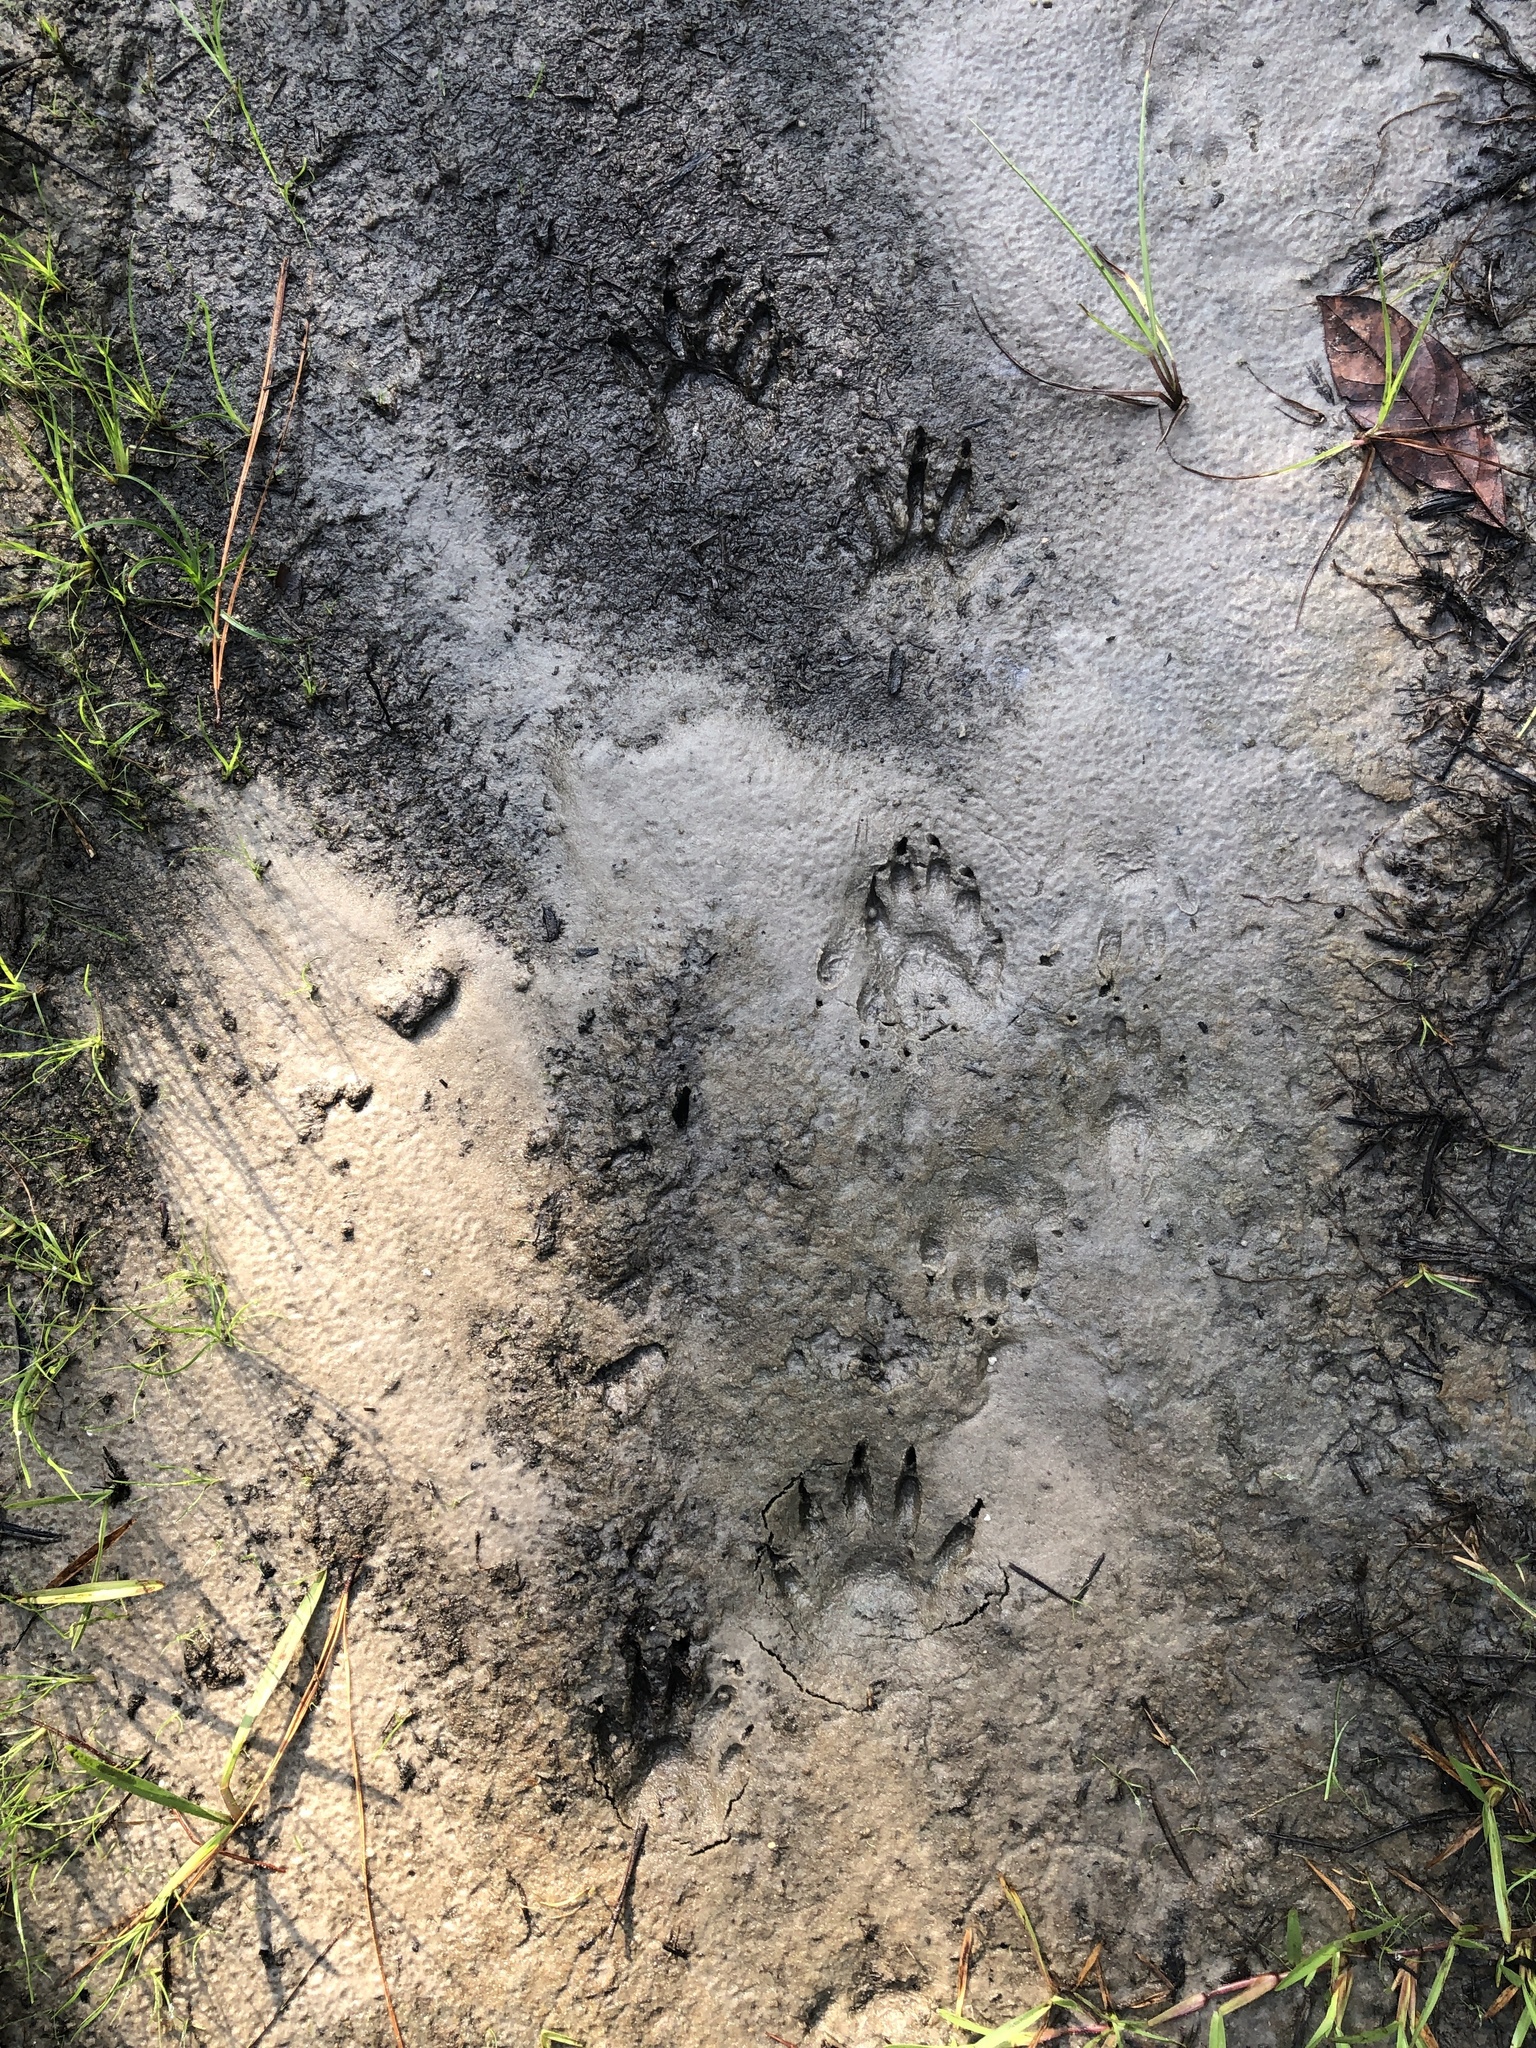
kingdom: Animalia
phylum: Chordata
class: Mammalia
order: Carnivora
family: Procyonidae
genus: Procyon
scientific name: Procyon lotor
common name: Raccoon
